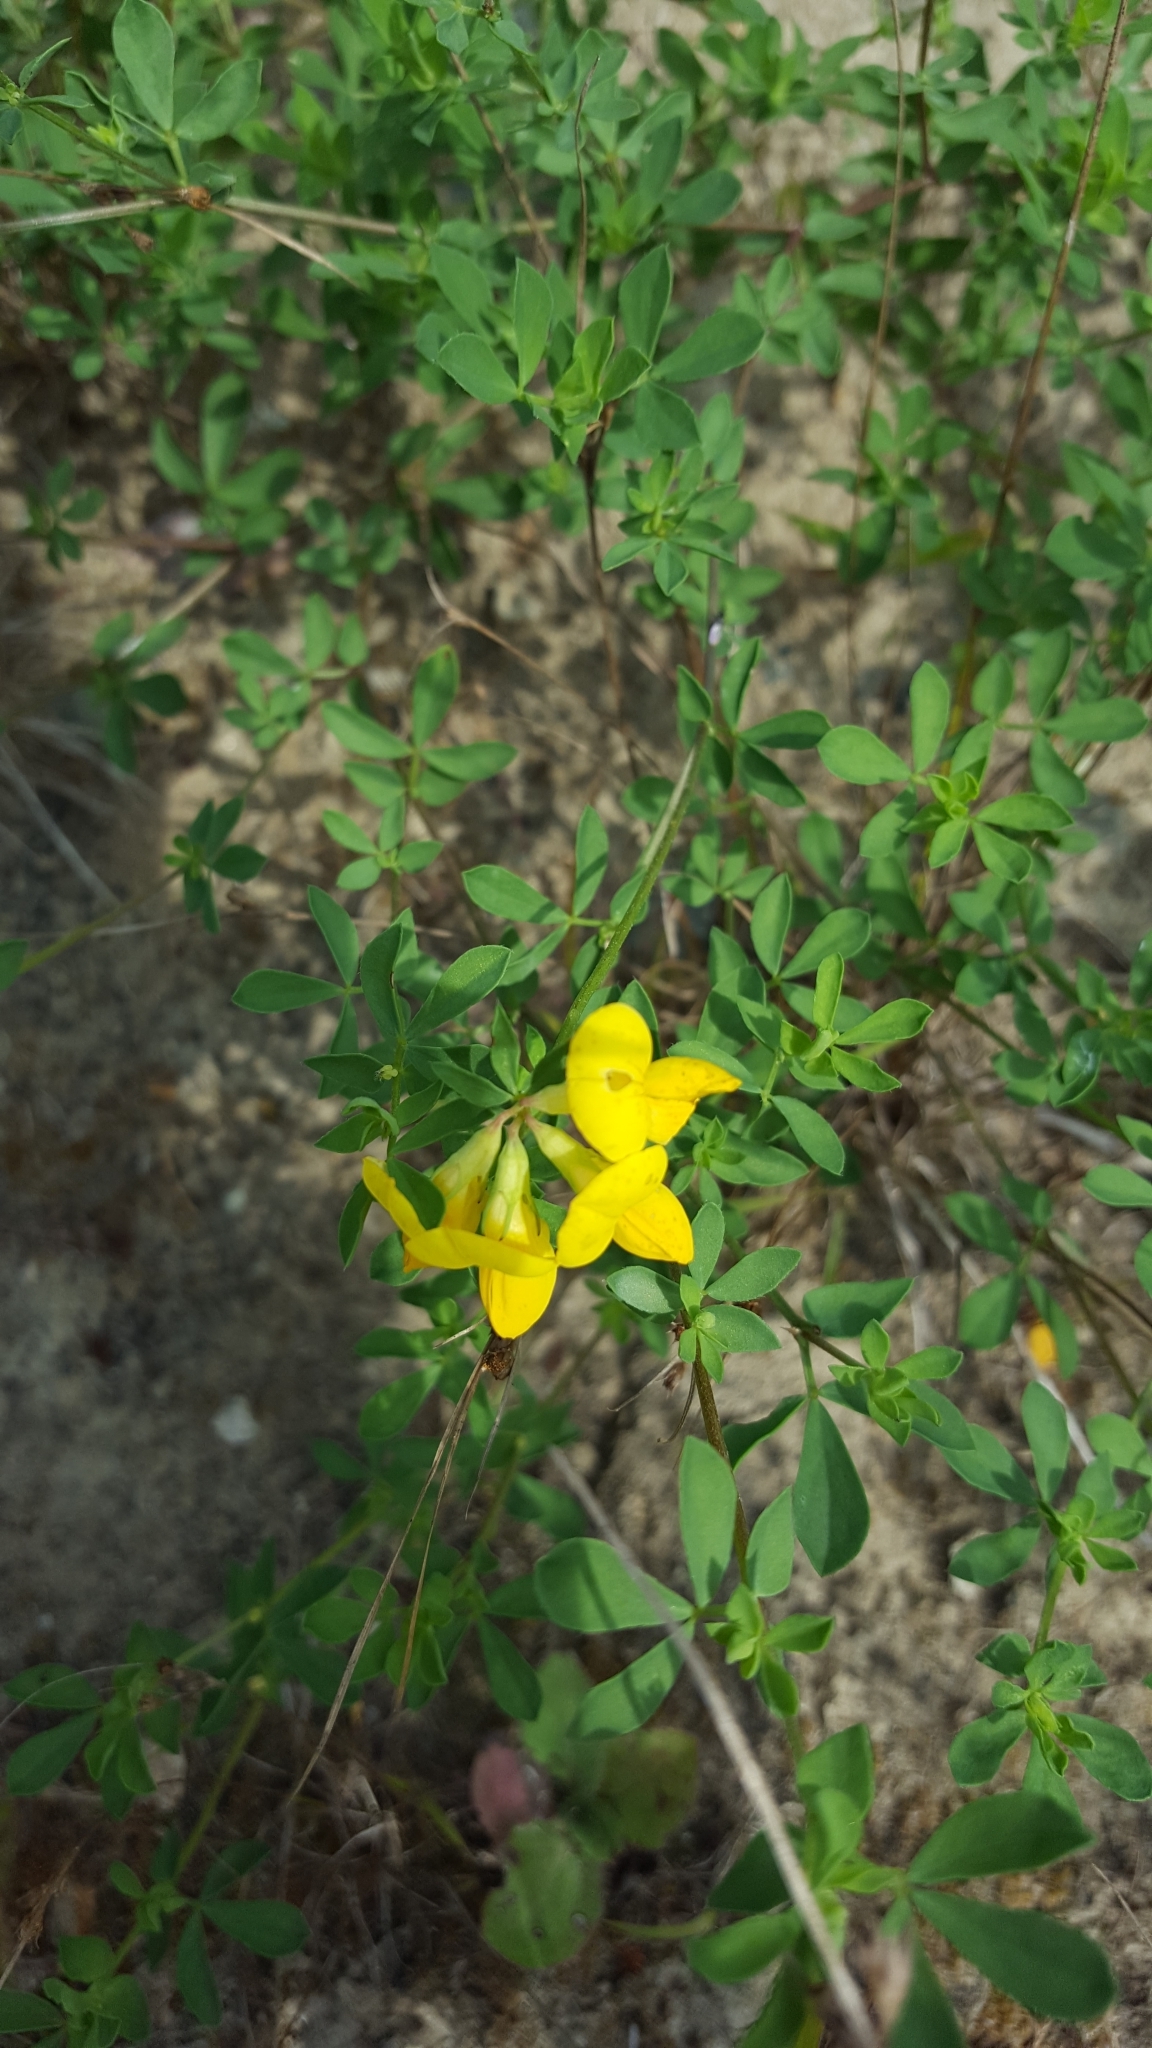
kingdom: Plantae
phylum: Tracheophyta
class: Magnoliopsida
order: Fabales
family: Fabaceae
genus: Lotus
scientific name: Lotus corniculatus
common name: Common bird's-foot-trefoil
